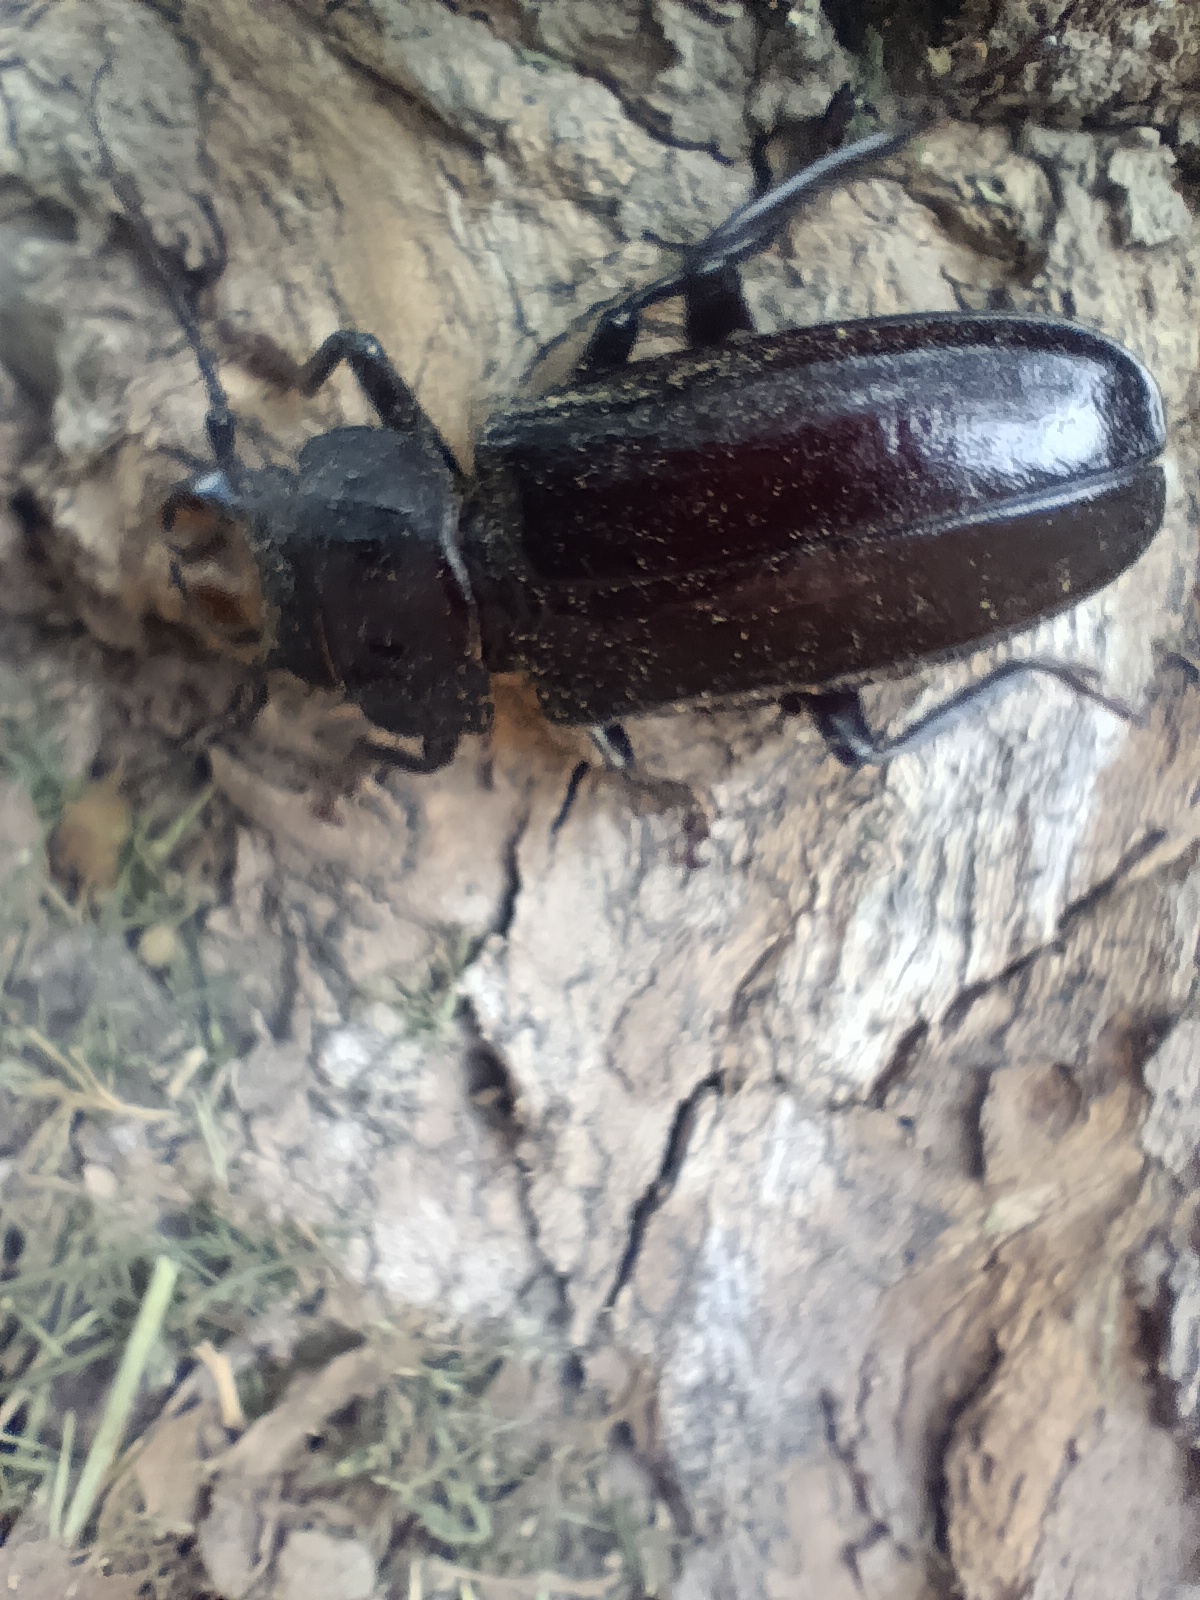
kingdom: Animalia
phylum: Arthropoda
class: Insecta
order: Coleoptera
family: Cerambycidae
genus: Mallodon
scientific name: Mallodon dasystomum
